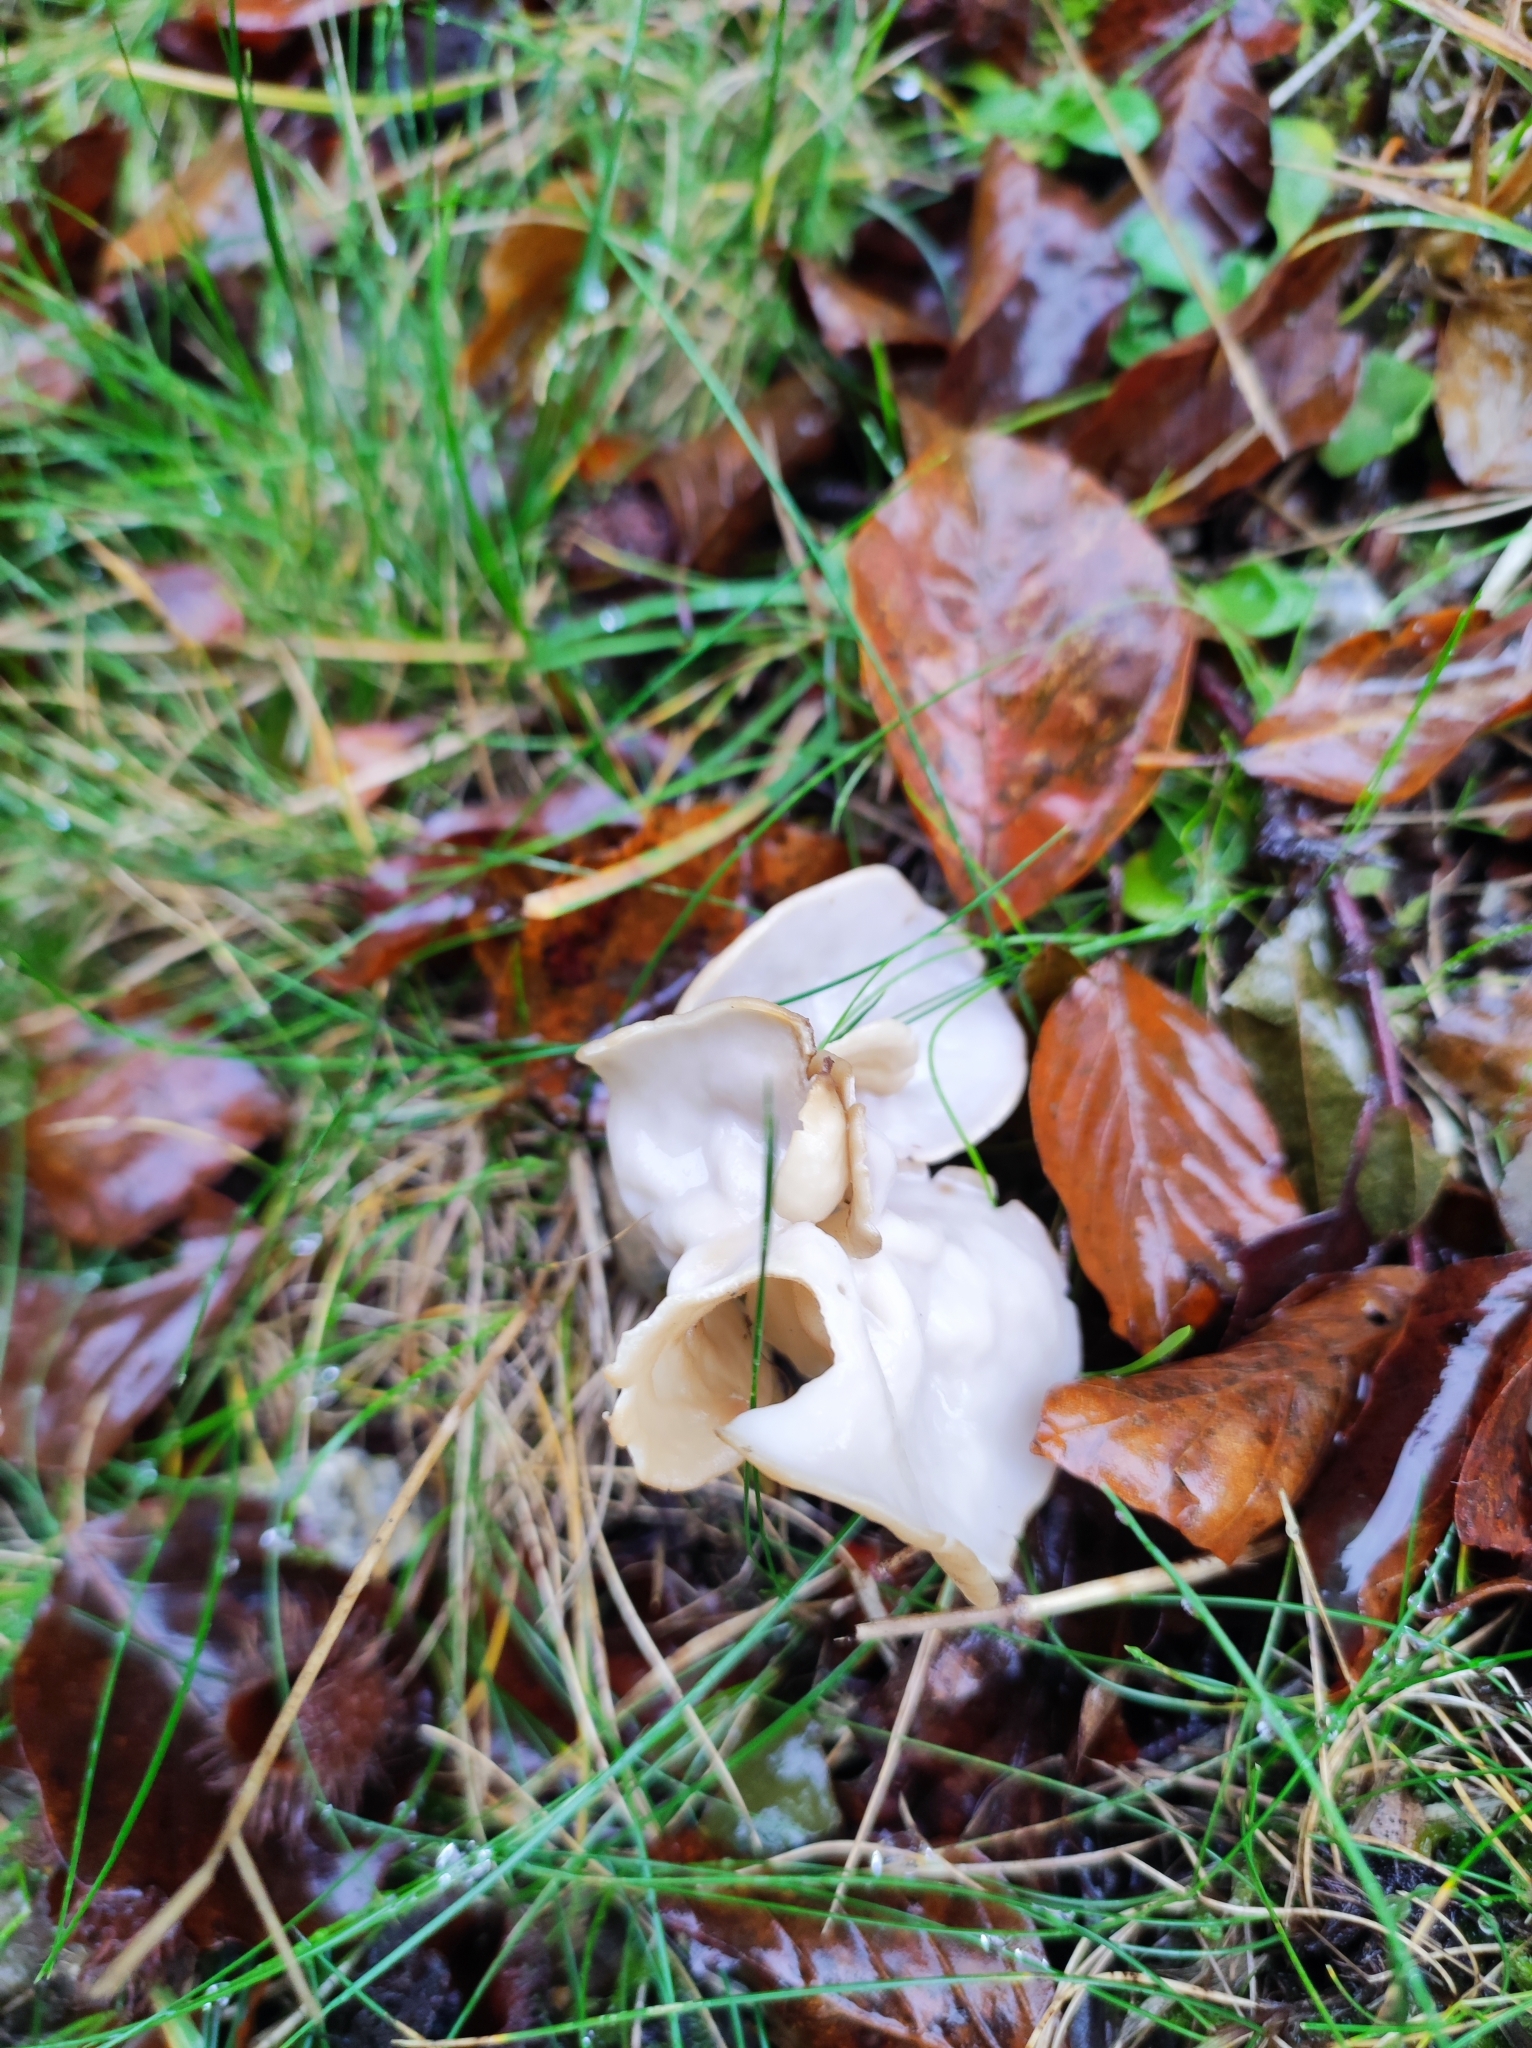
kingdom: Fungi
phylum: Ascomycota
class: Pezizomycetes
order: Pezizales
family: Helvellaceae
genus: Helvella
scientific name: Helvella crispa
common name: White saddle
